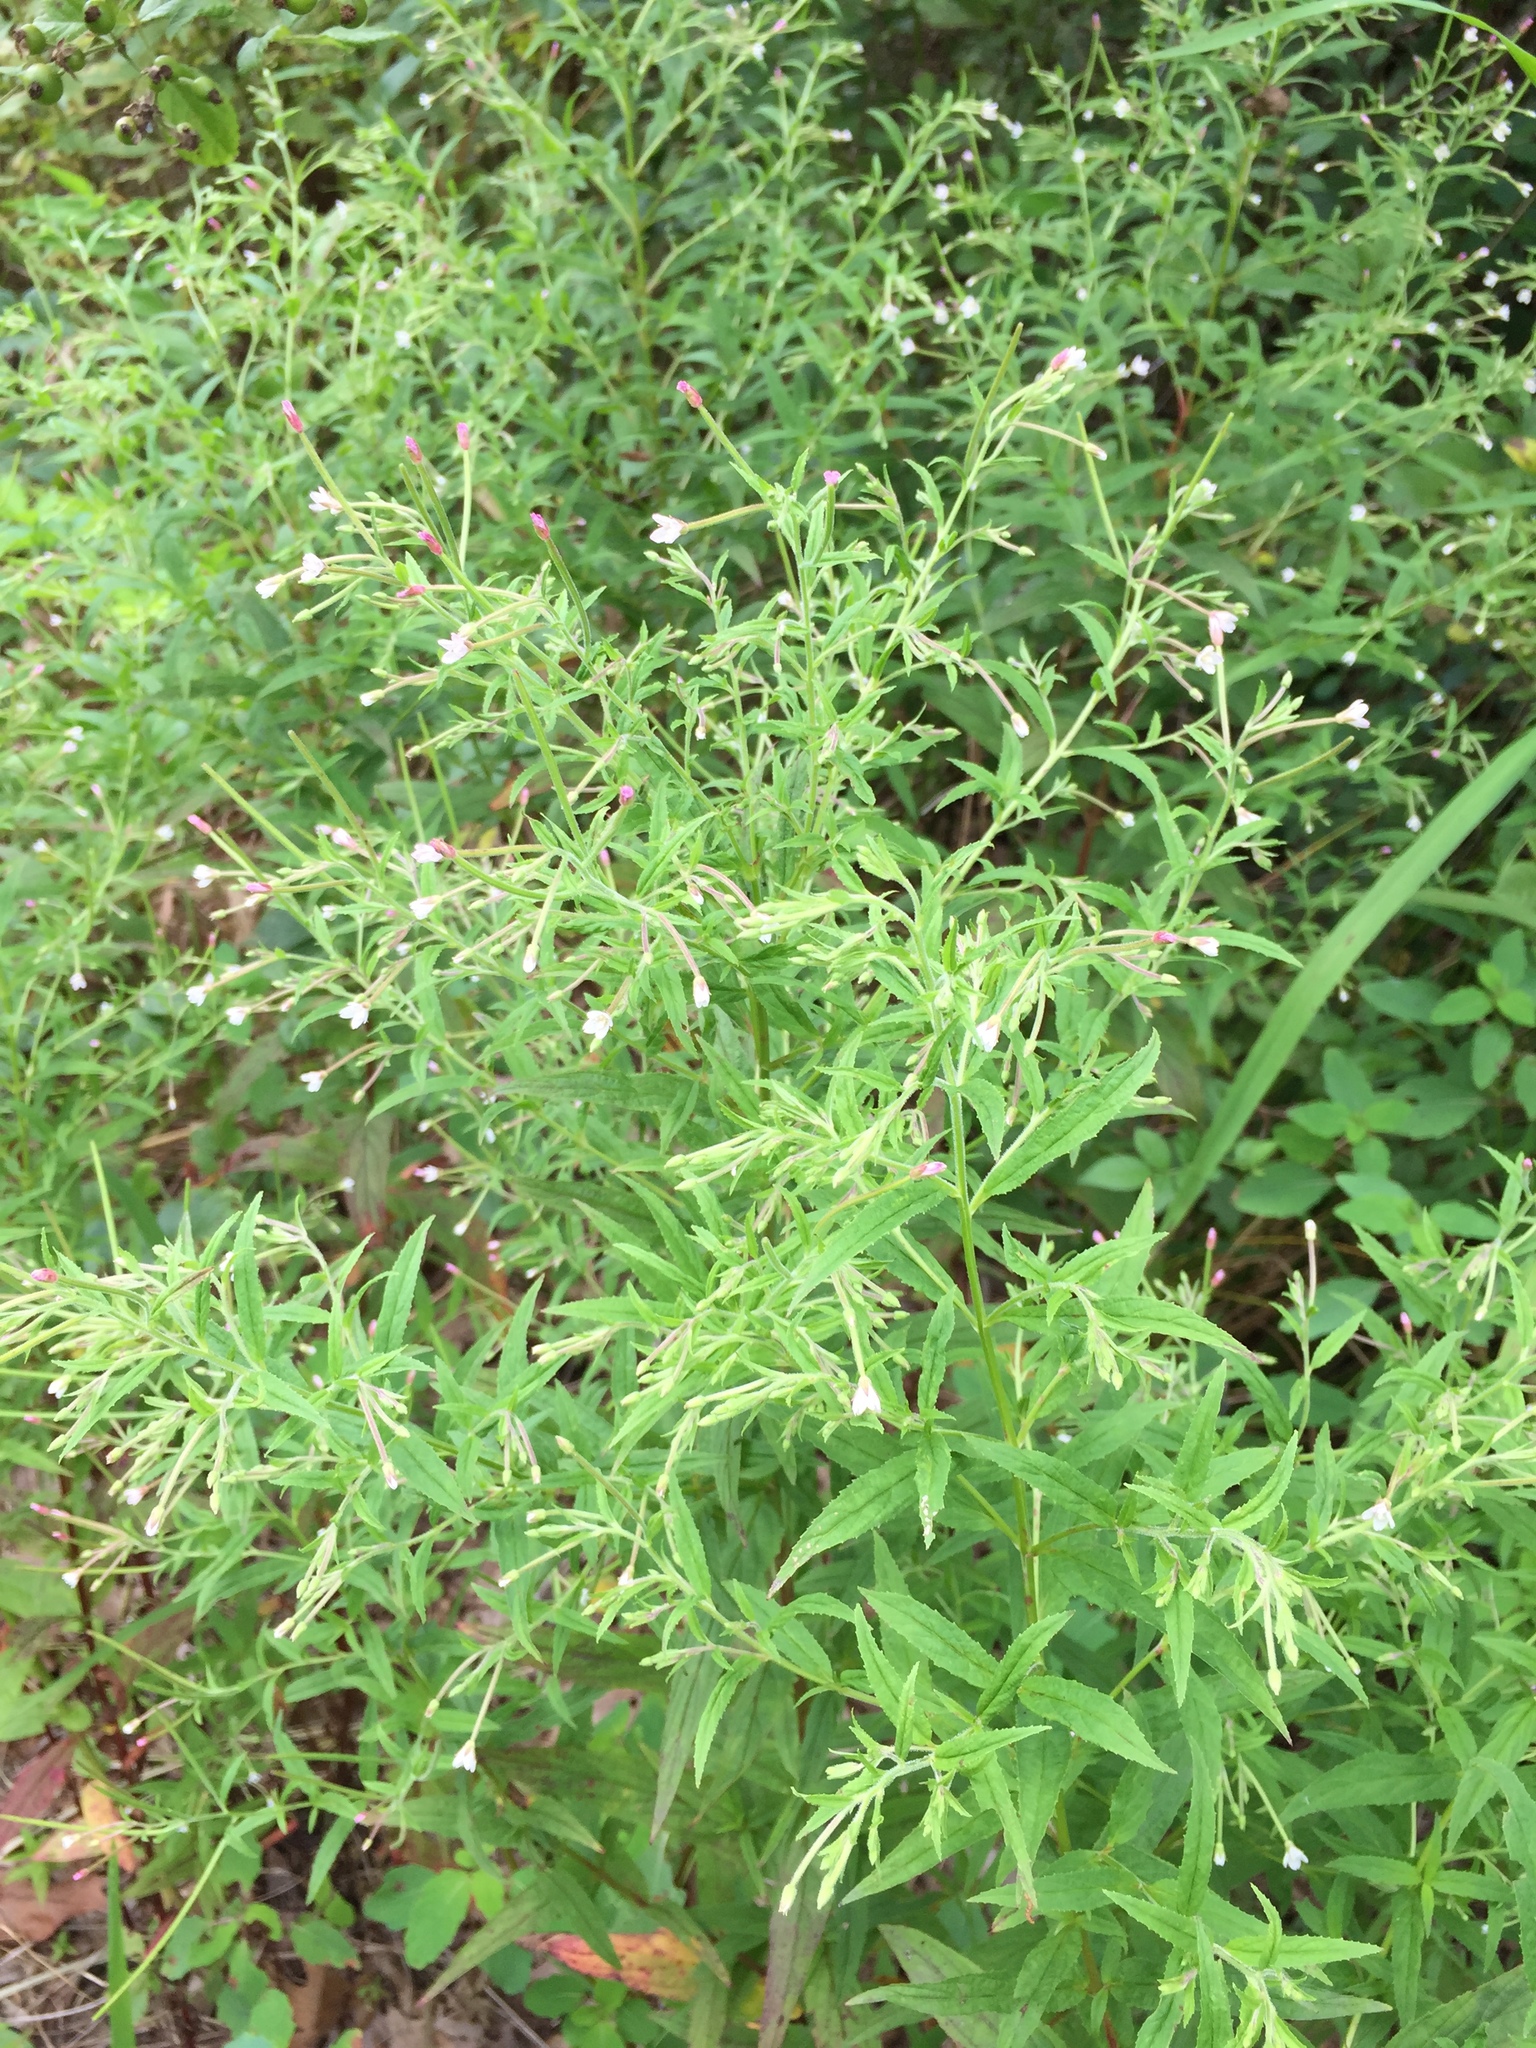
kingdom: Plantae
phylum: Tracheophyta
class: Magnoliopsida
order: Myrtales
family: Onagraceae
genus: Epilobium
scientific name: Epilobium coloratum
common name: Bronze willowherb
